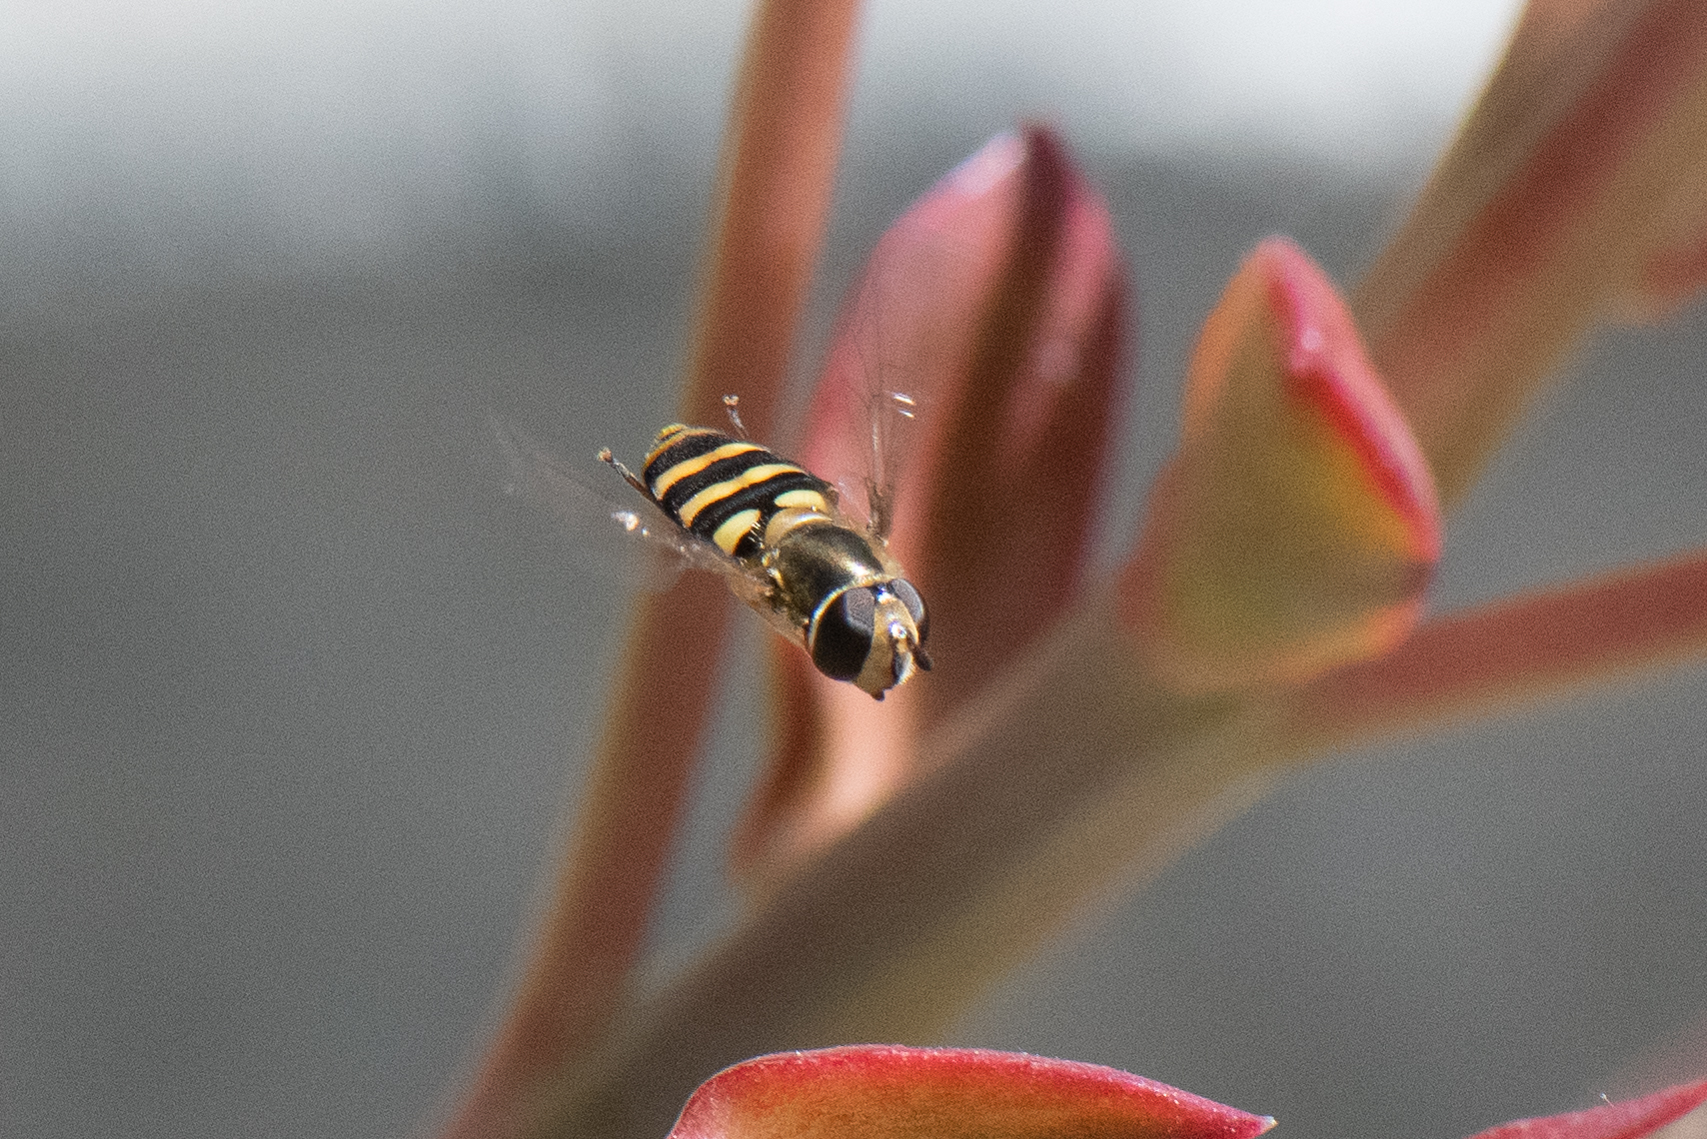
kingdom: Animalia
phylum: Arthropoda
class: Insecta
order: Diptera
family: Syrphidae
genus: Eupeodes
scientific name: Eupeodes fumipennis
